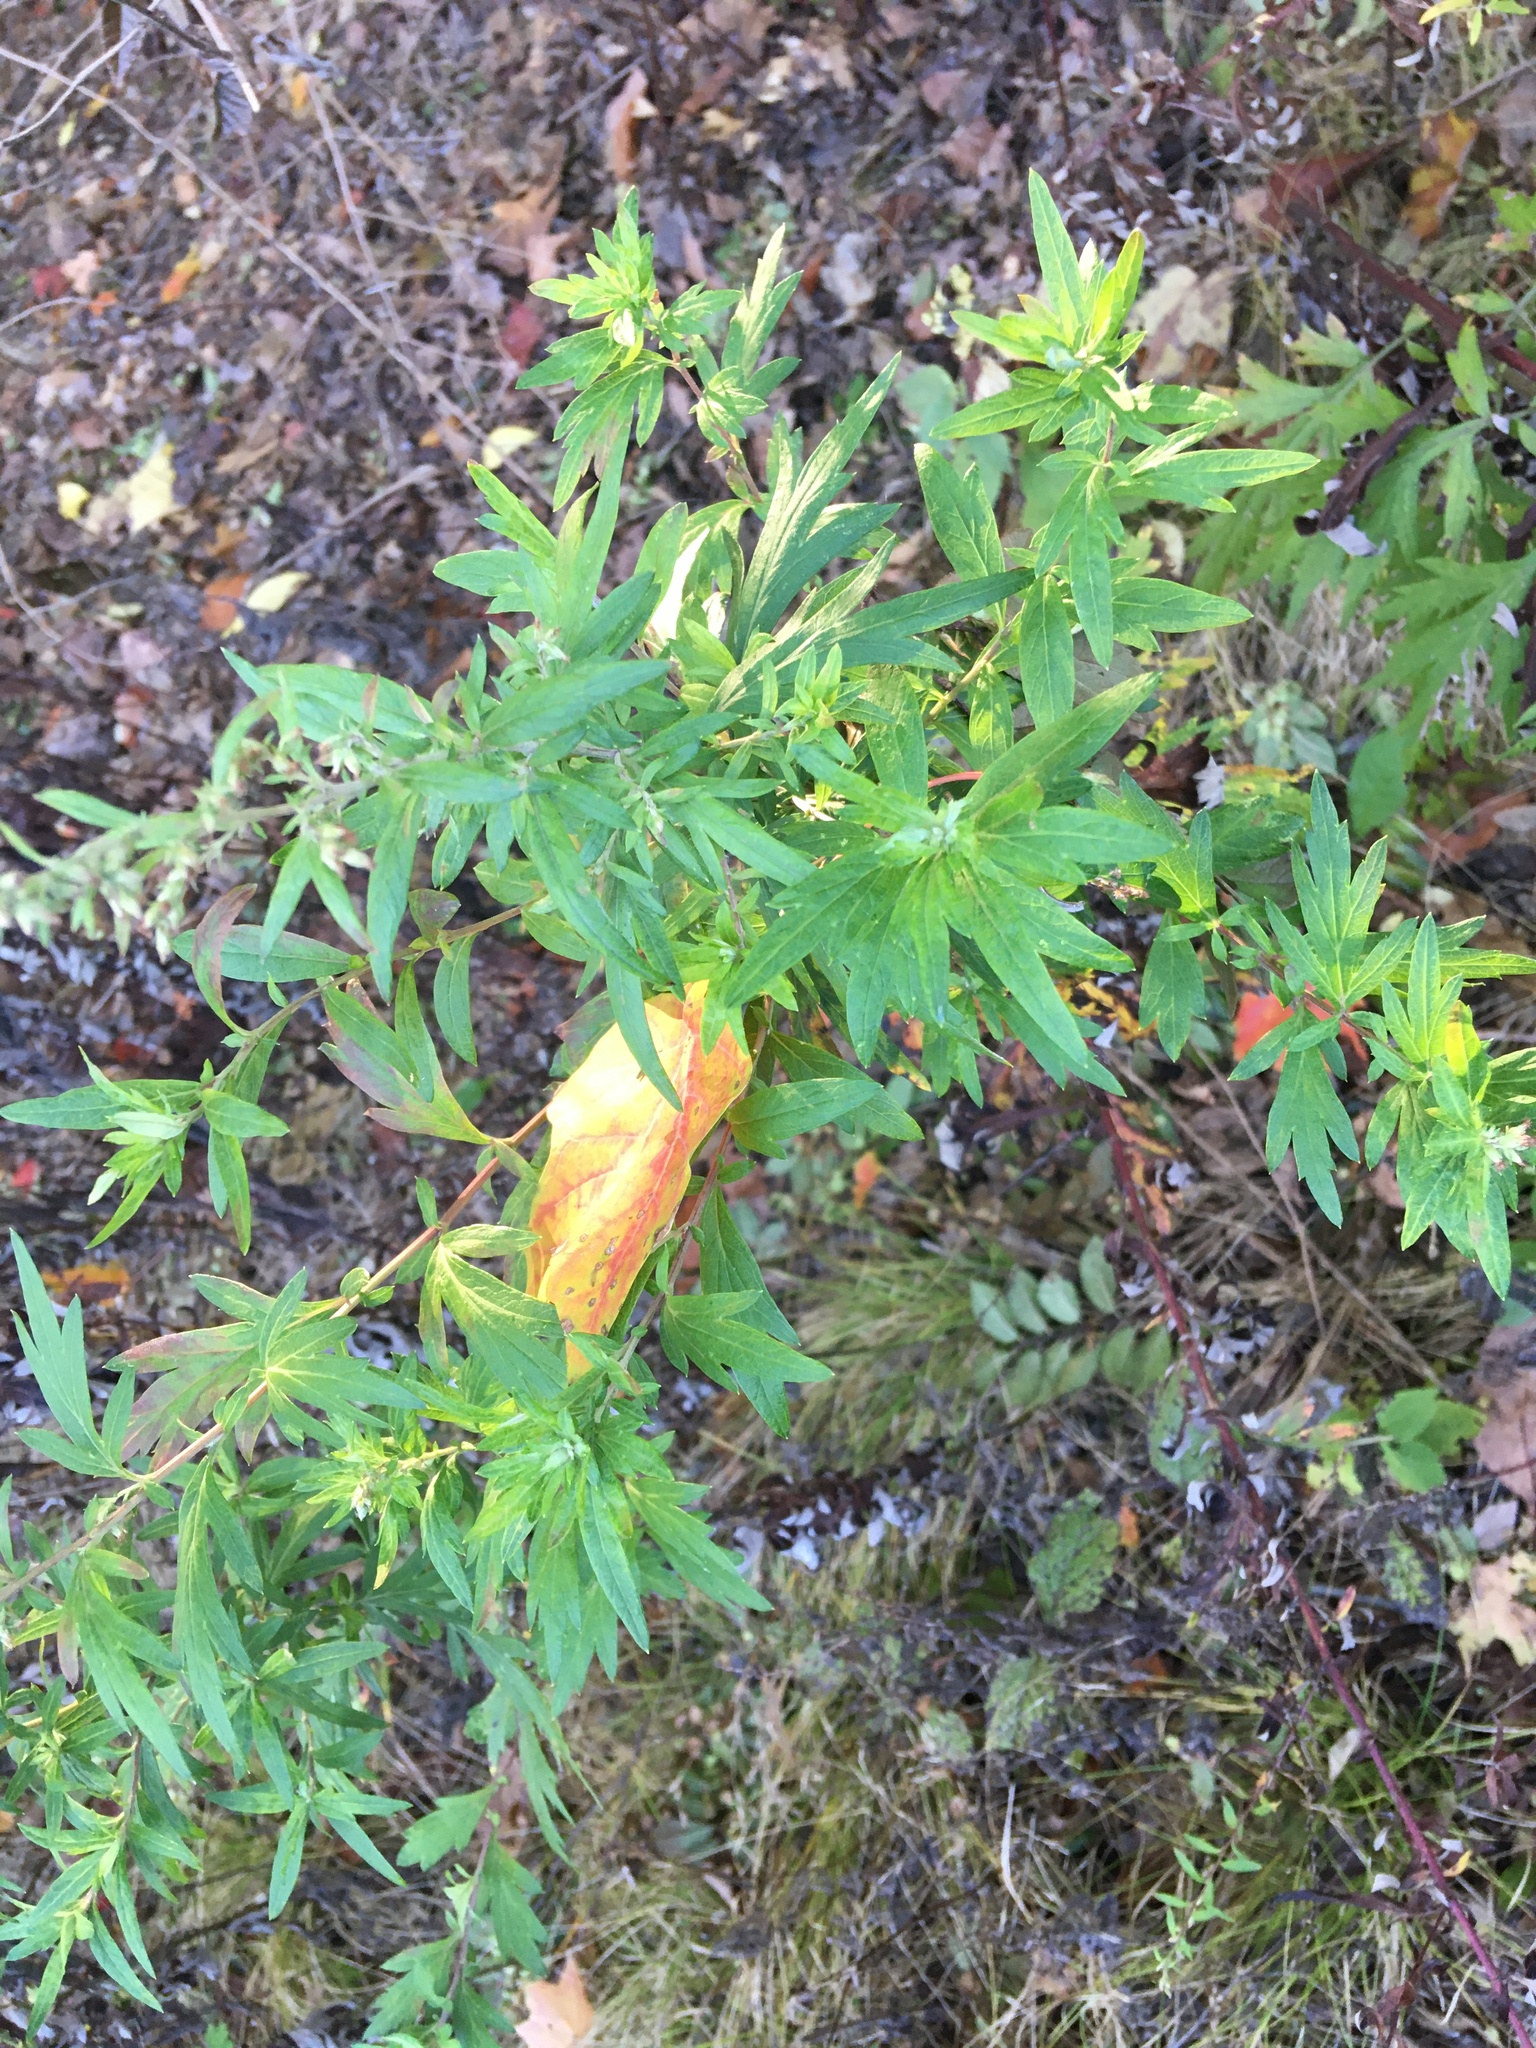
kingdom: Plantae
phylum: Tracheophyta
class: Magnoliopsida
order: Asterales
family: Asteraceae
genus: Artemisia
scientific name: Artemisia vulgaris
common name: Mugwort
